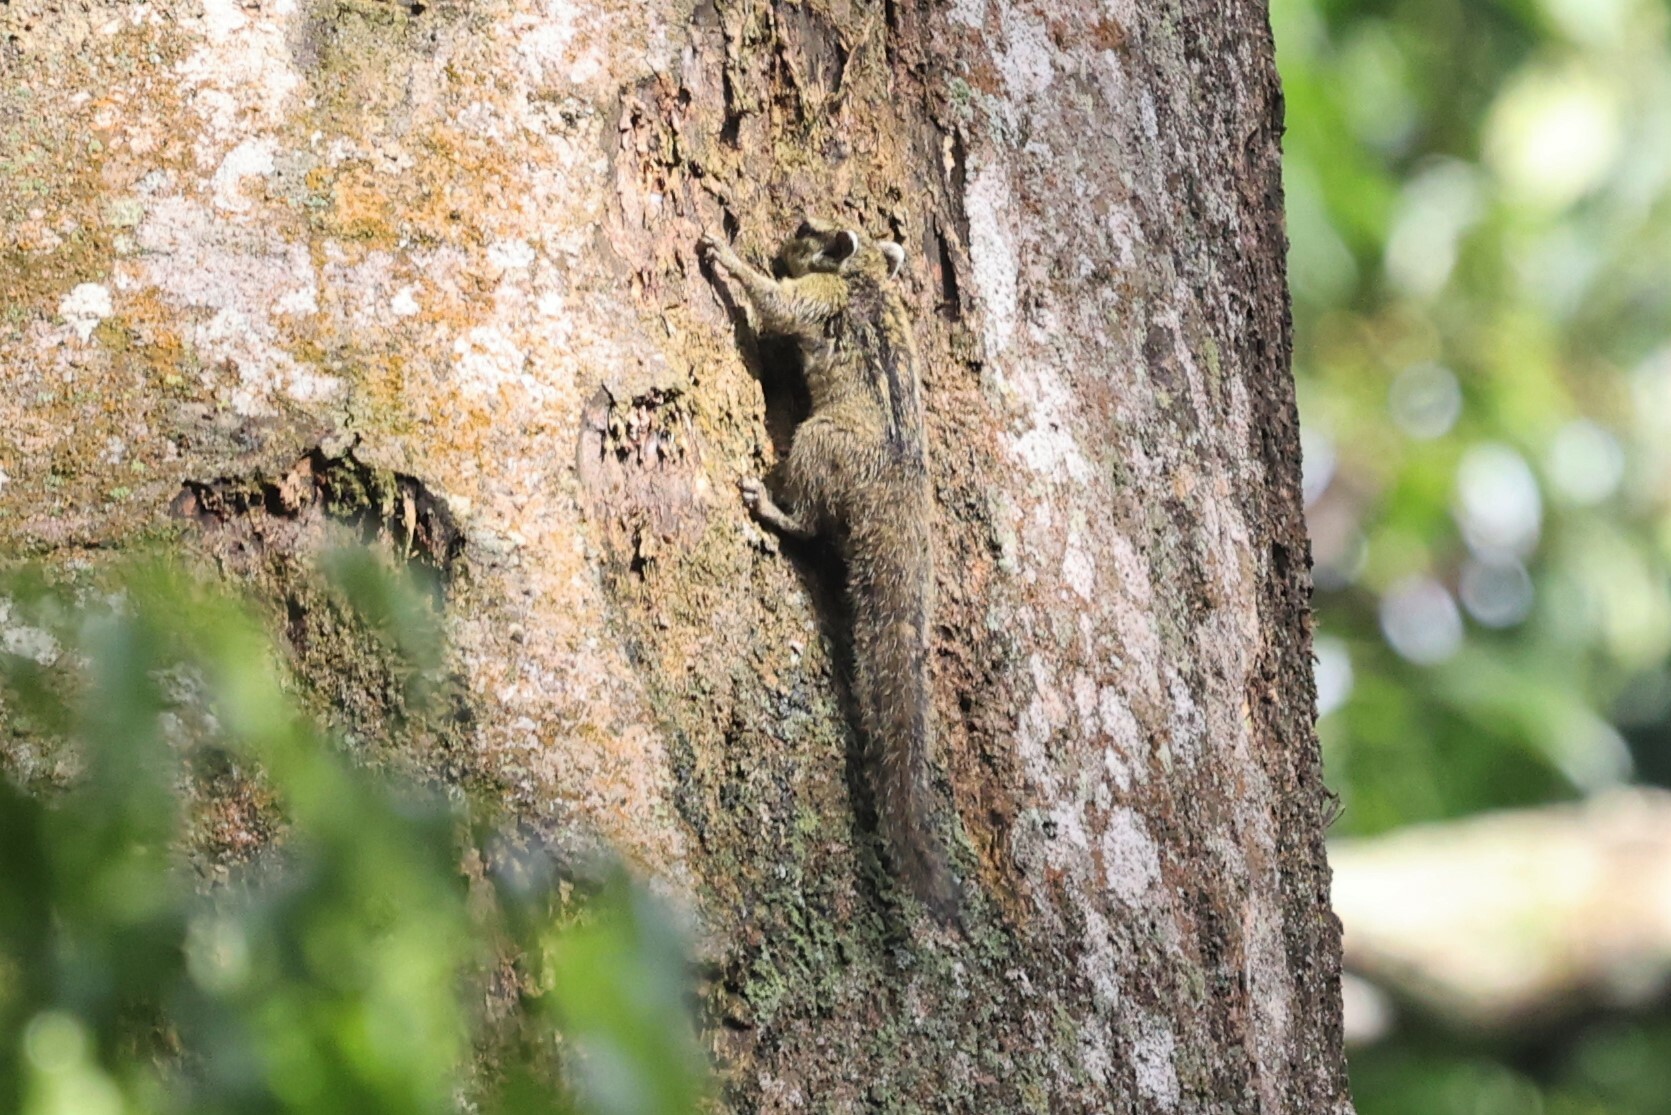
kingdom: Animalia
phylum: Chordata
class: Mammalia
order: Rodentia
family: Sciuridae
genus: Paraxerus
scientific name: Paraxerus alexandri
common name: Alexander's bush squirrel
